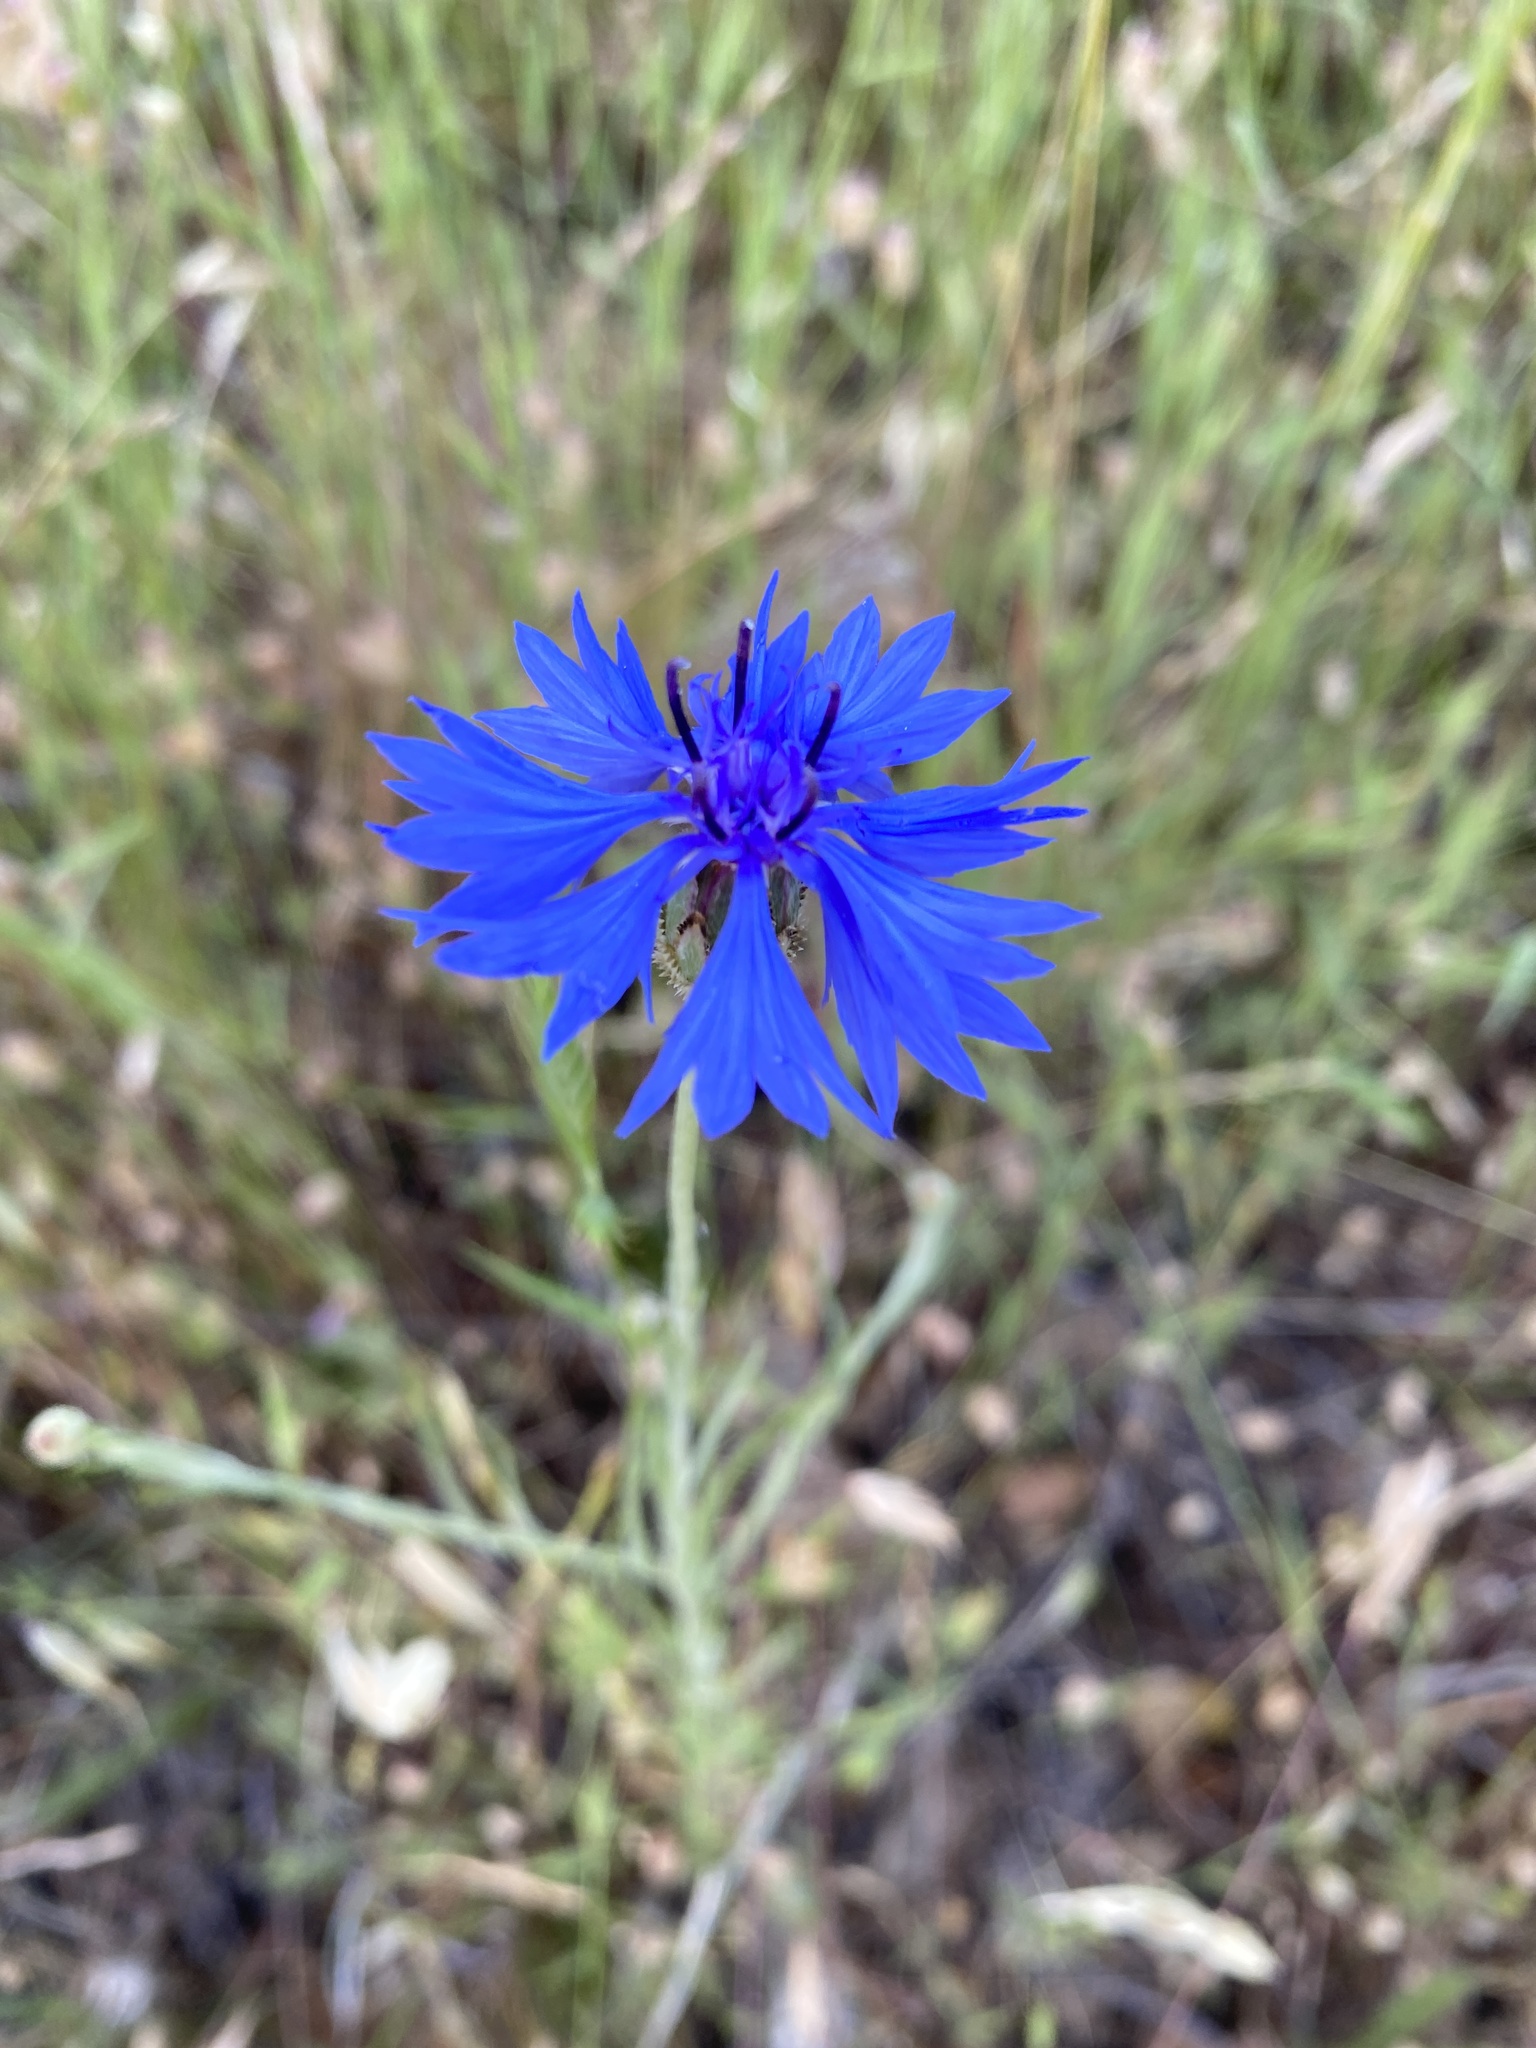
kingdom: Plantae
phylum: Tracheophyta
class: Magnoliopsida
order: Asterales
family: Asteraceae
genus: Centaurea
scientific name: Centaurea cyanus
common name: Cornflower
